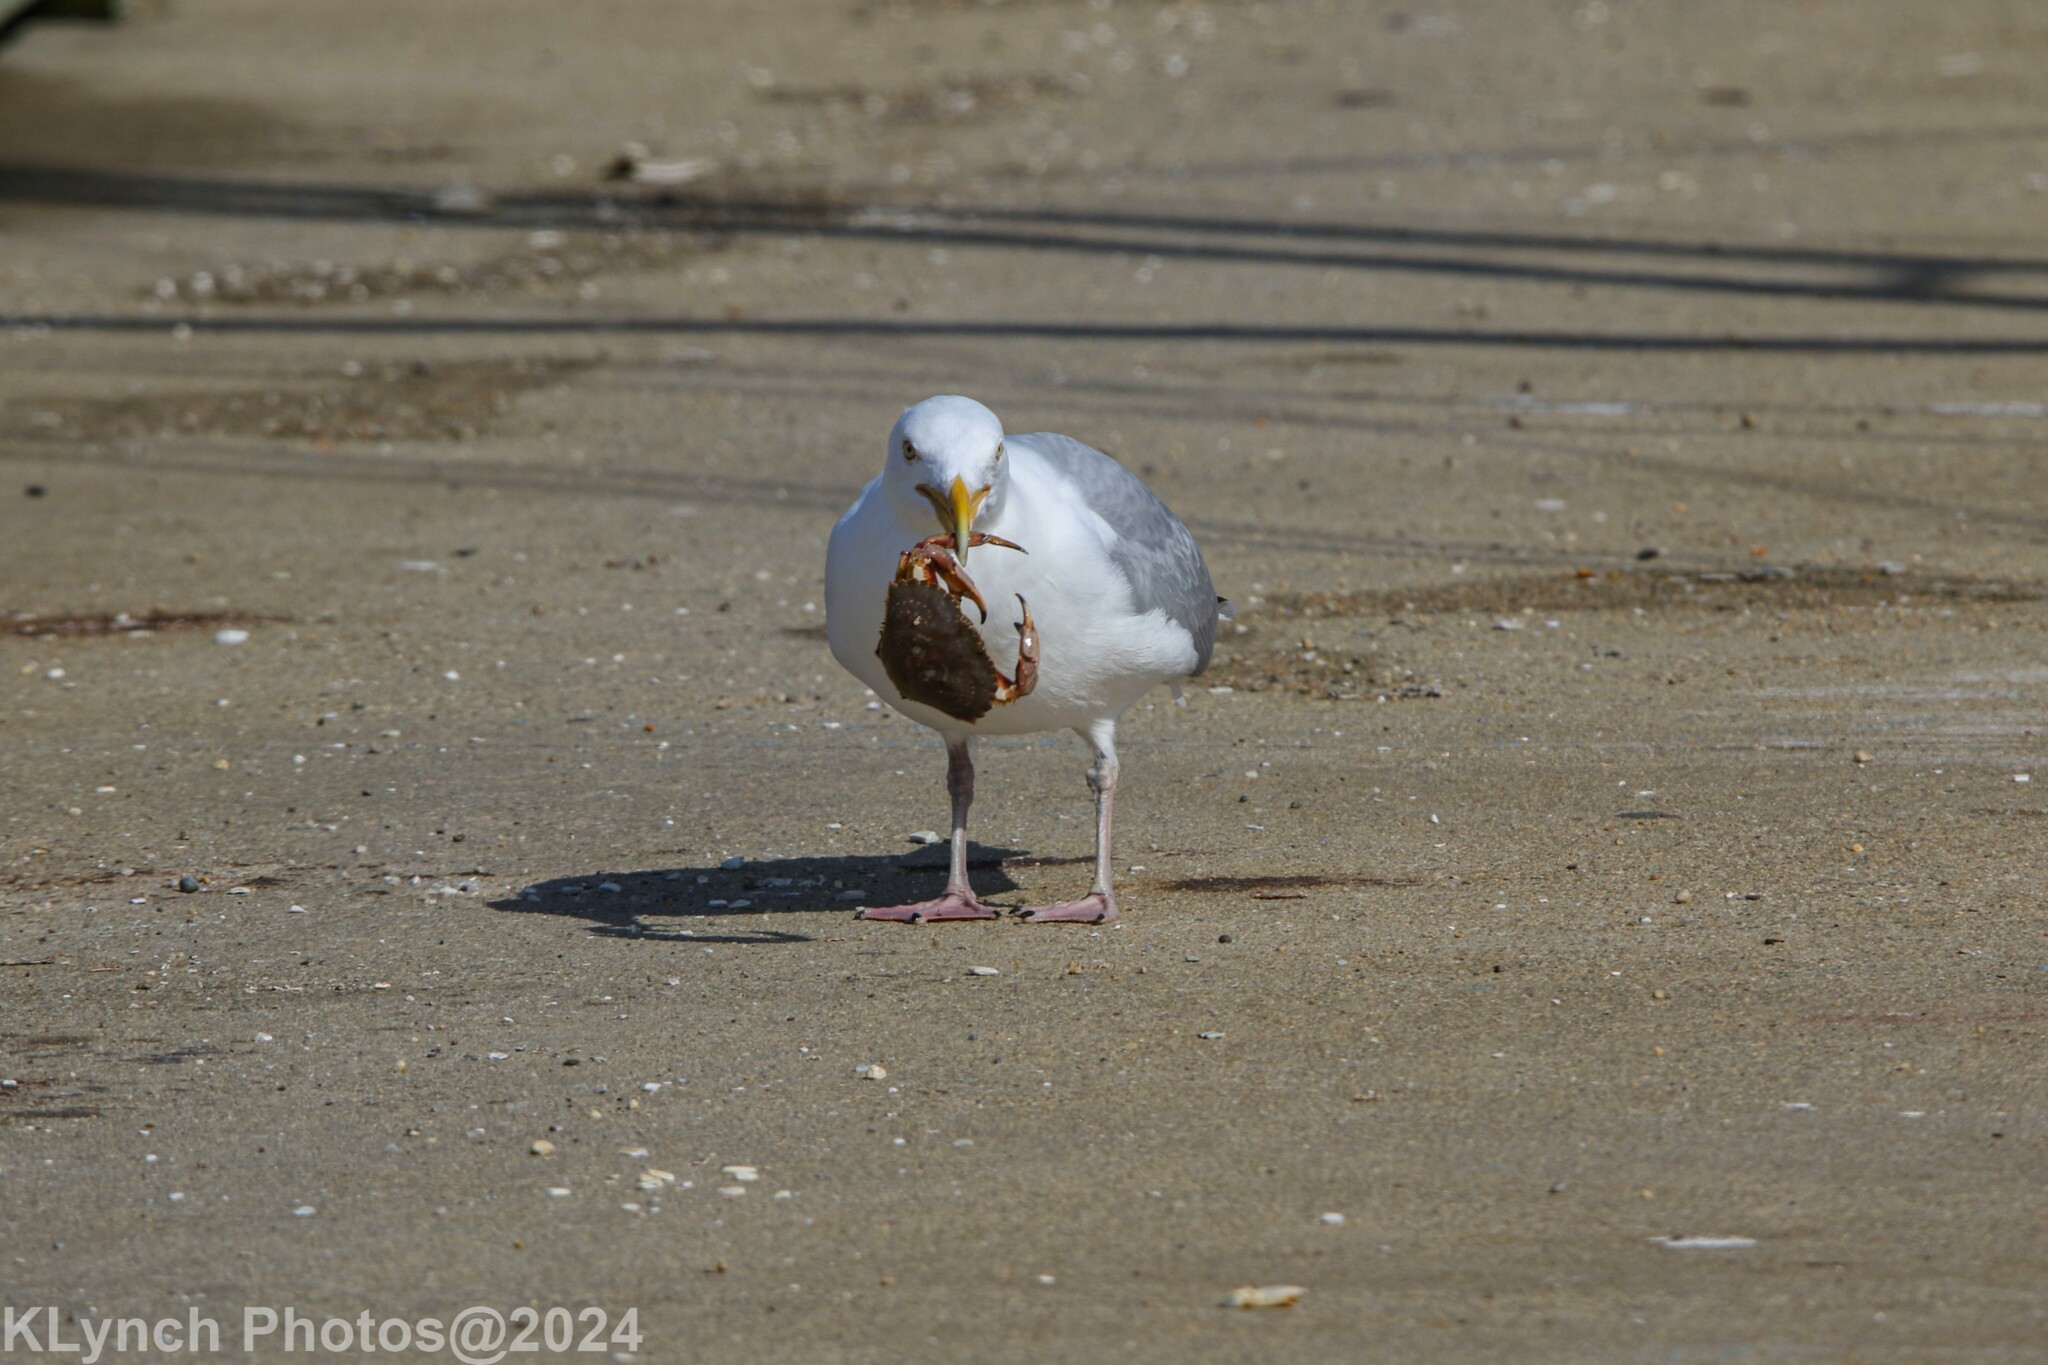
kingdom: Animalia
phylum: Chordata
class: Aves
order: Charadriiformes
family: Laridae
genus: Larus
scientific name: Larus argentatus
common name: Herring gull
